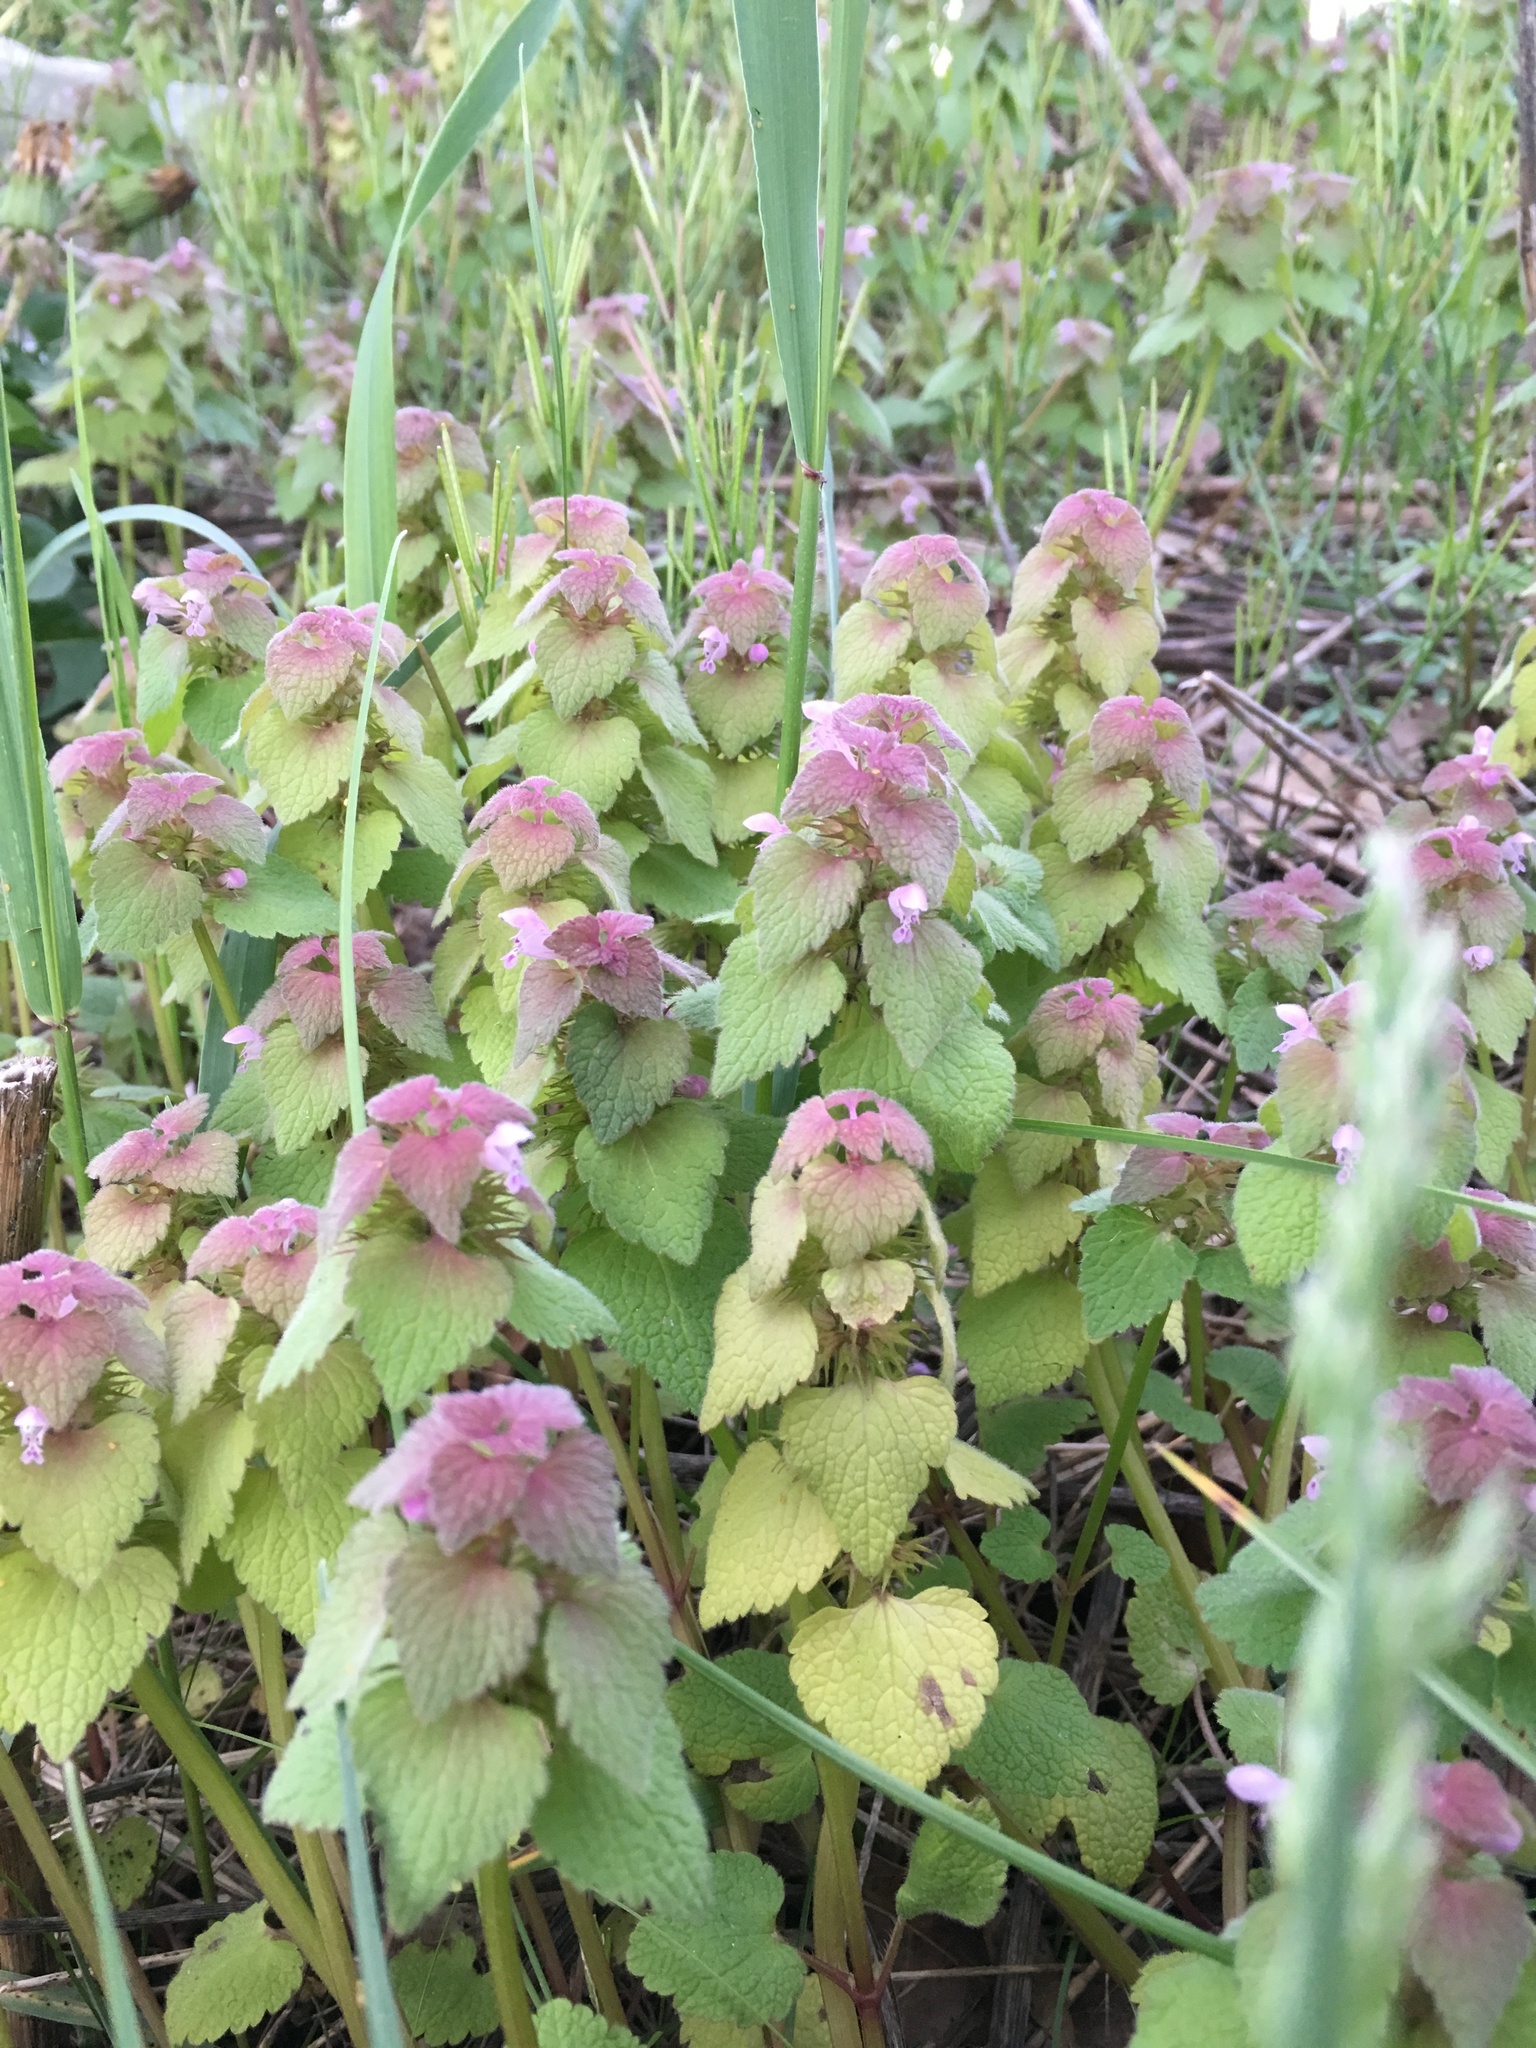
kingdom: Plantae
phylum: Tracheophyta
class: Magnoliopsida
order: Lamiales
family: Lamiaceae
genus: Lamium
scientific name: Lamium purpureum
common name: Red dead-nettle
